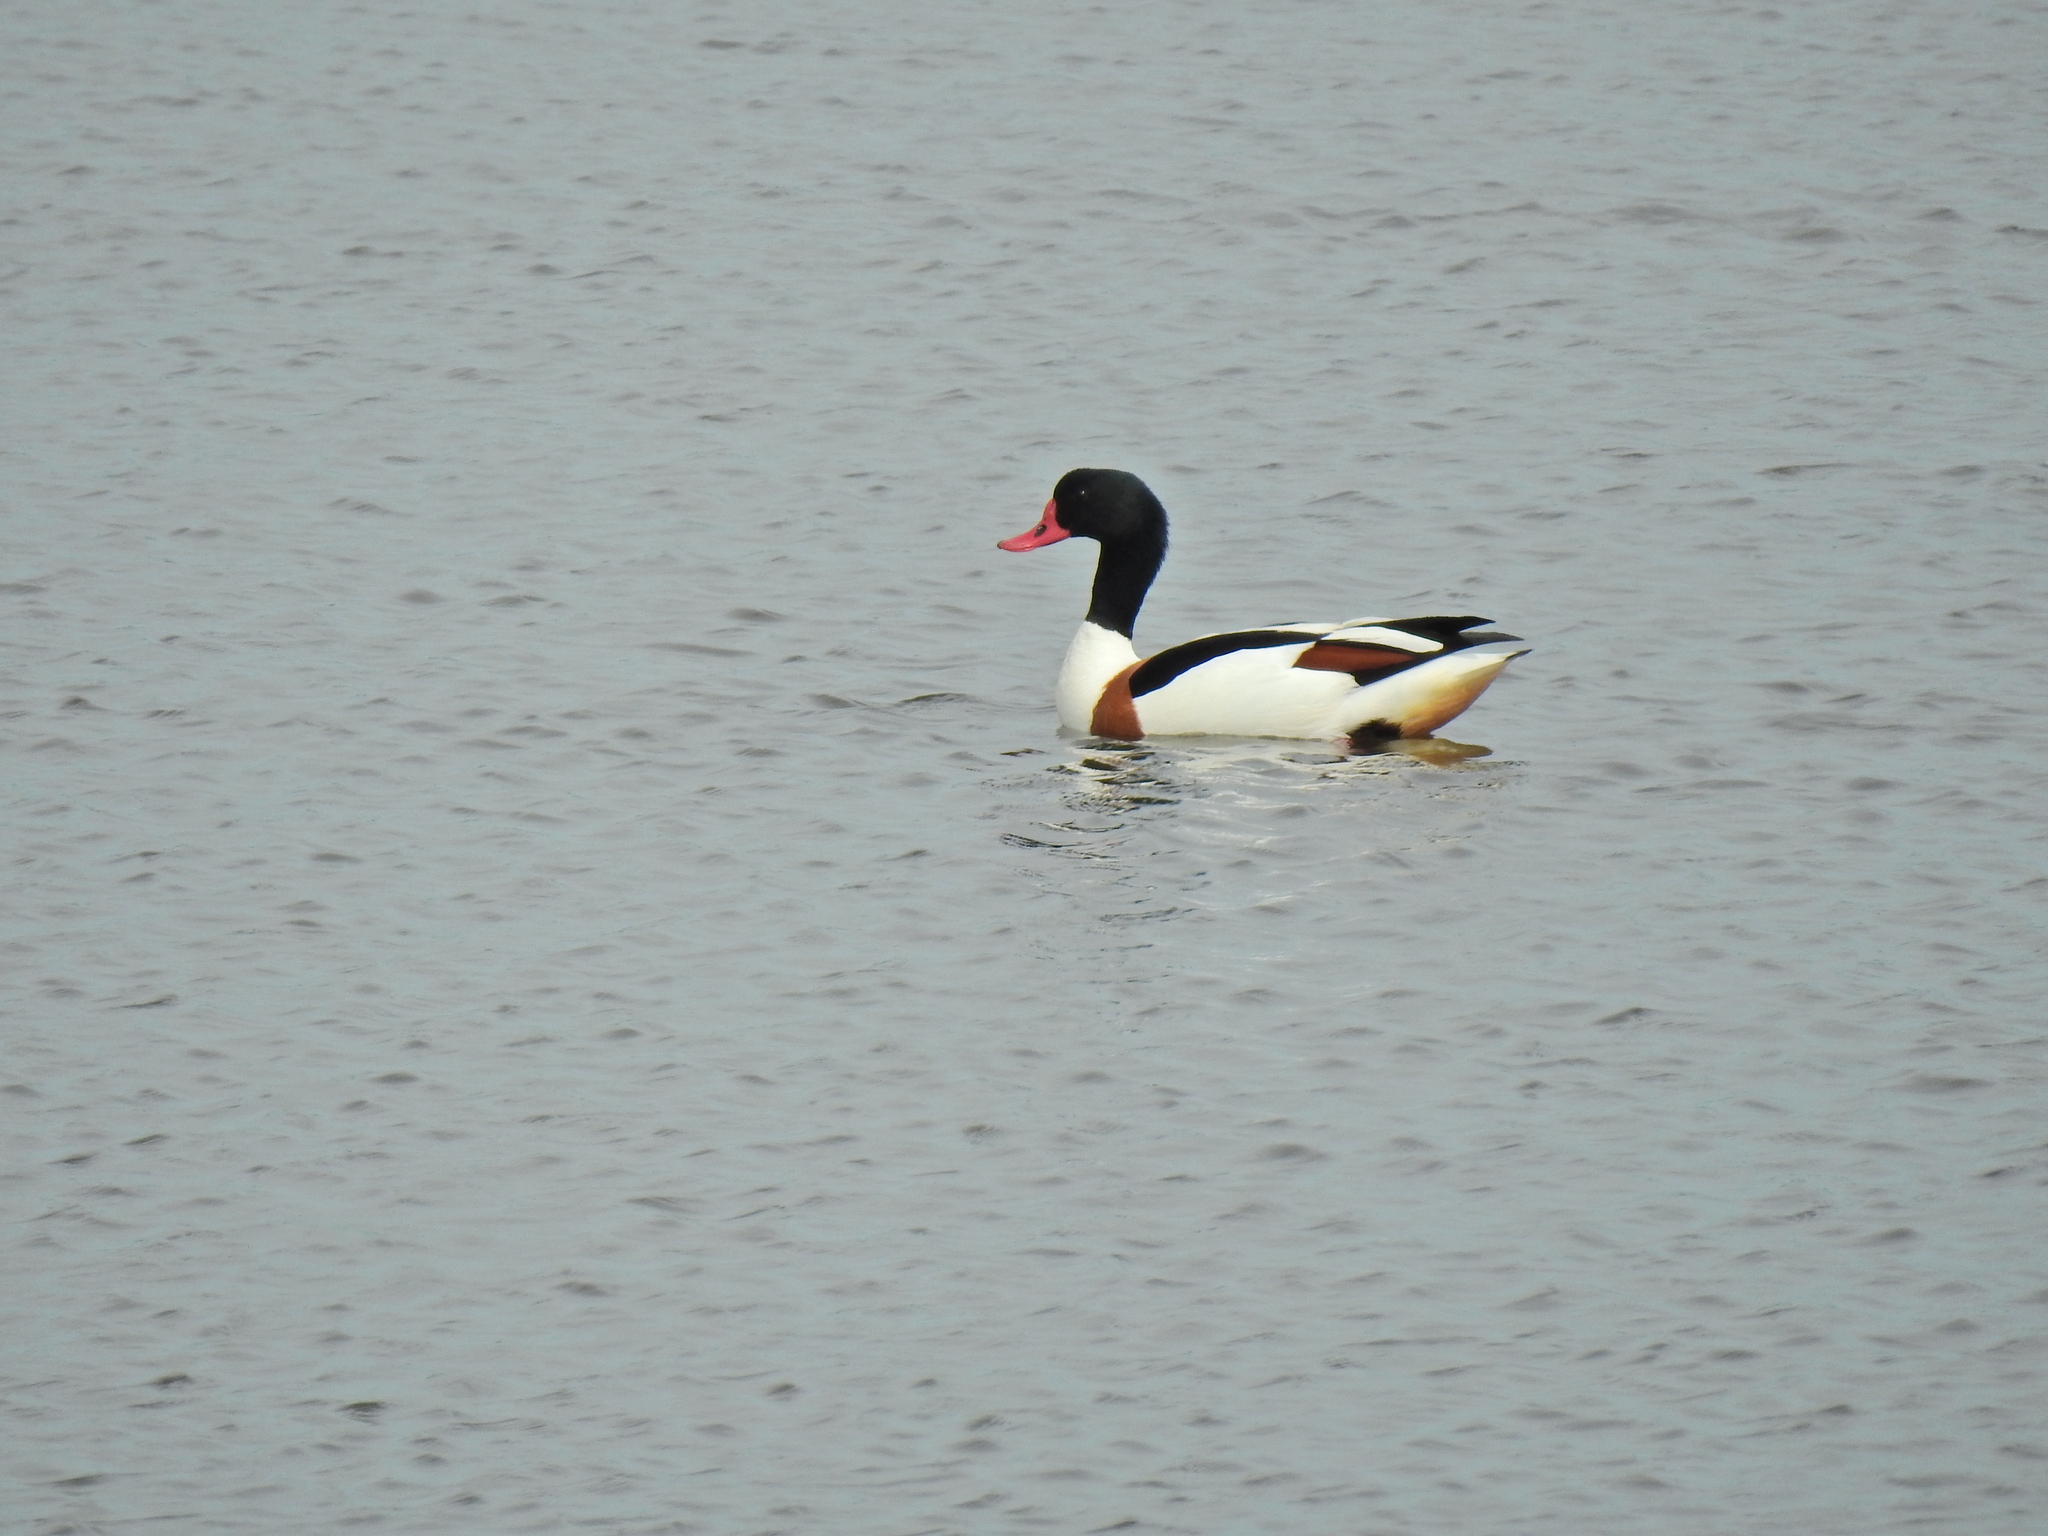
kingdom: Animalia
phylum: Chordata
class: Aves
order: Anseriformes
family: Anatidae
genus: Tadorna
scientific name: Tadorna tadorna
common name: Common shelduck
